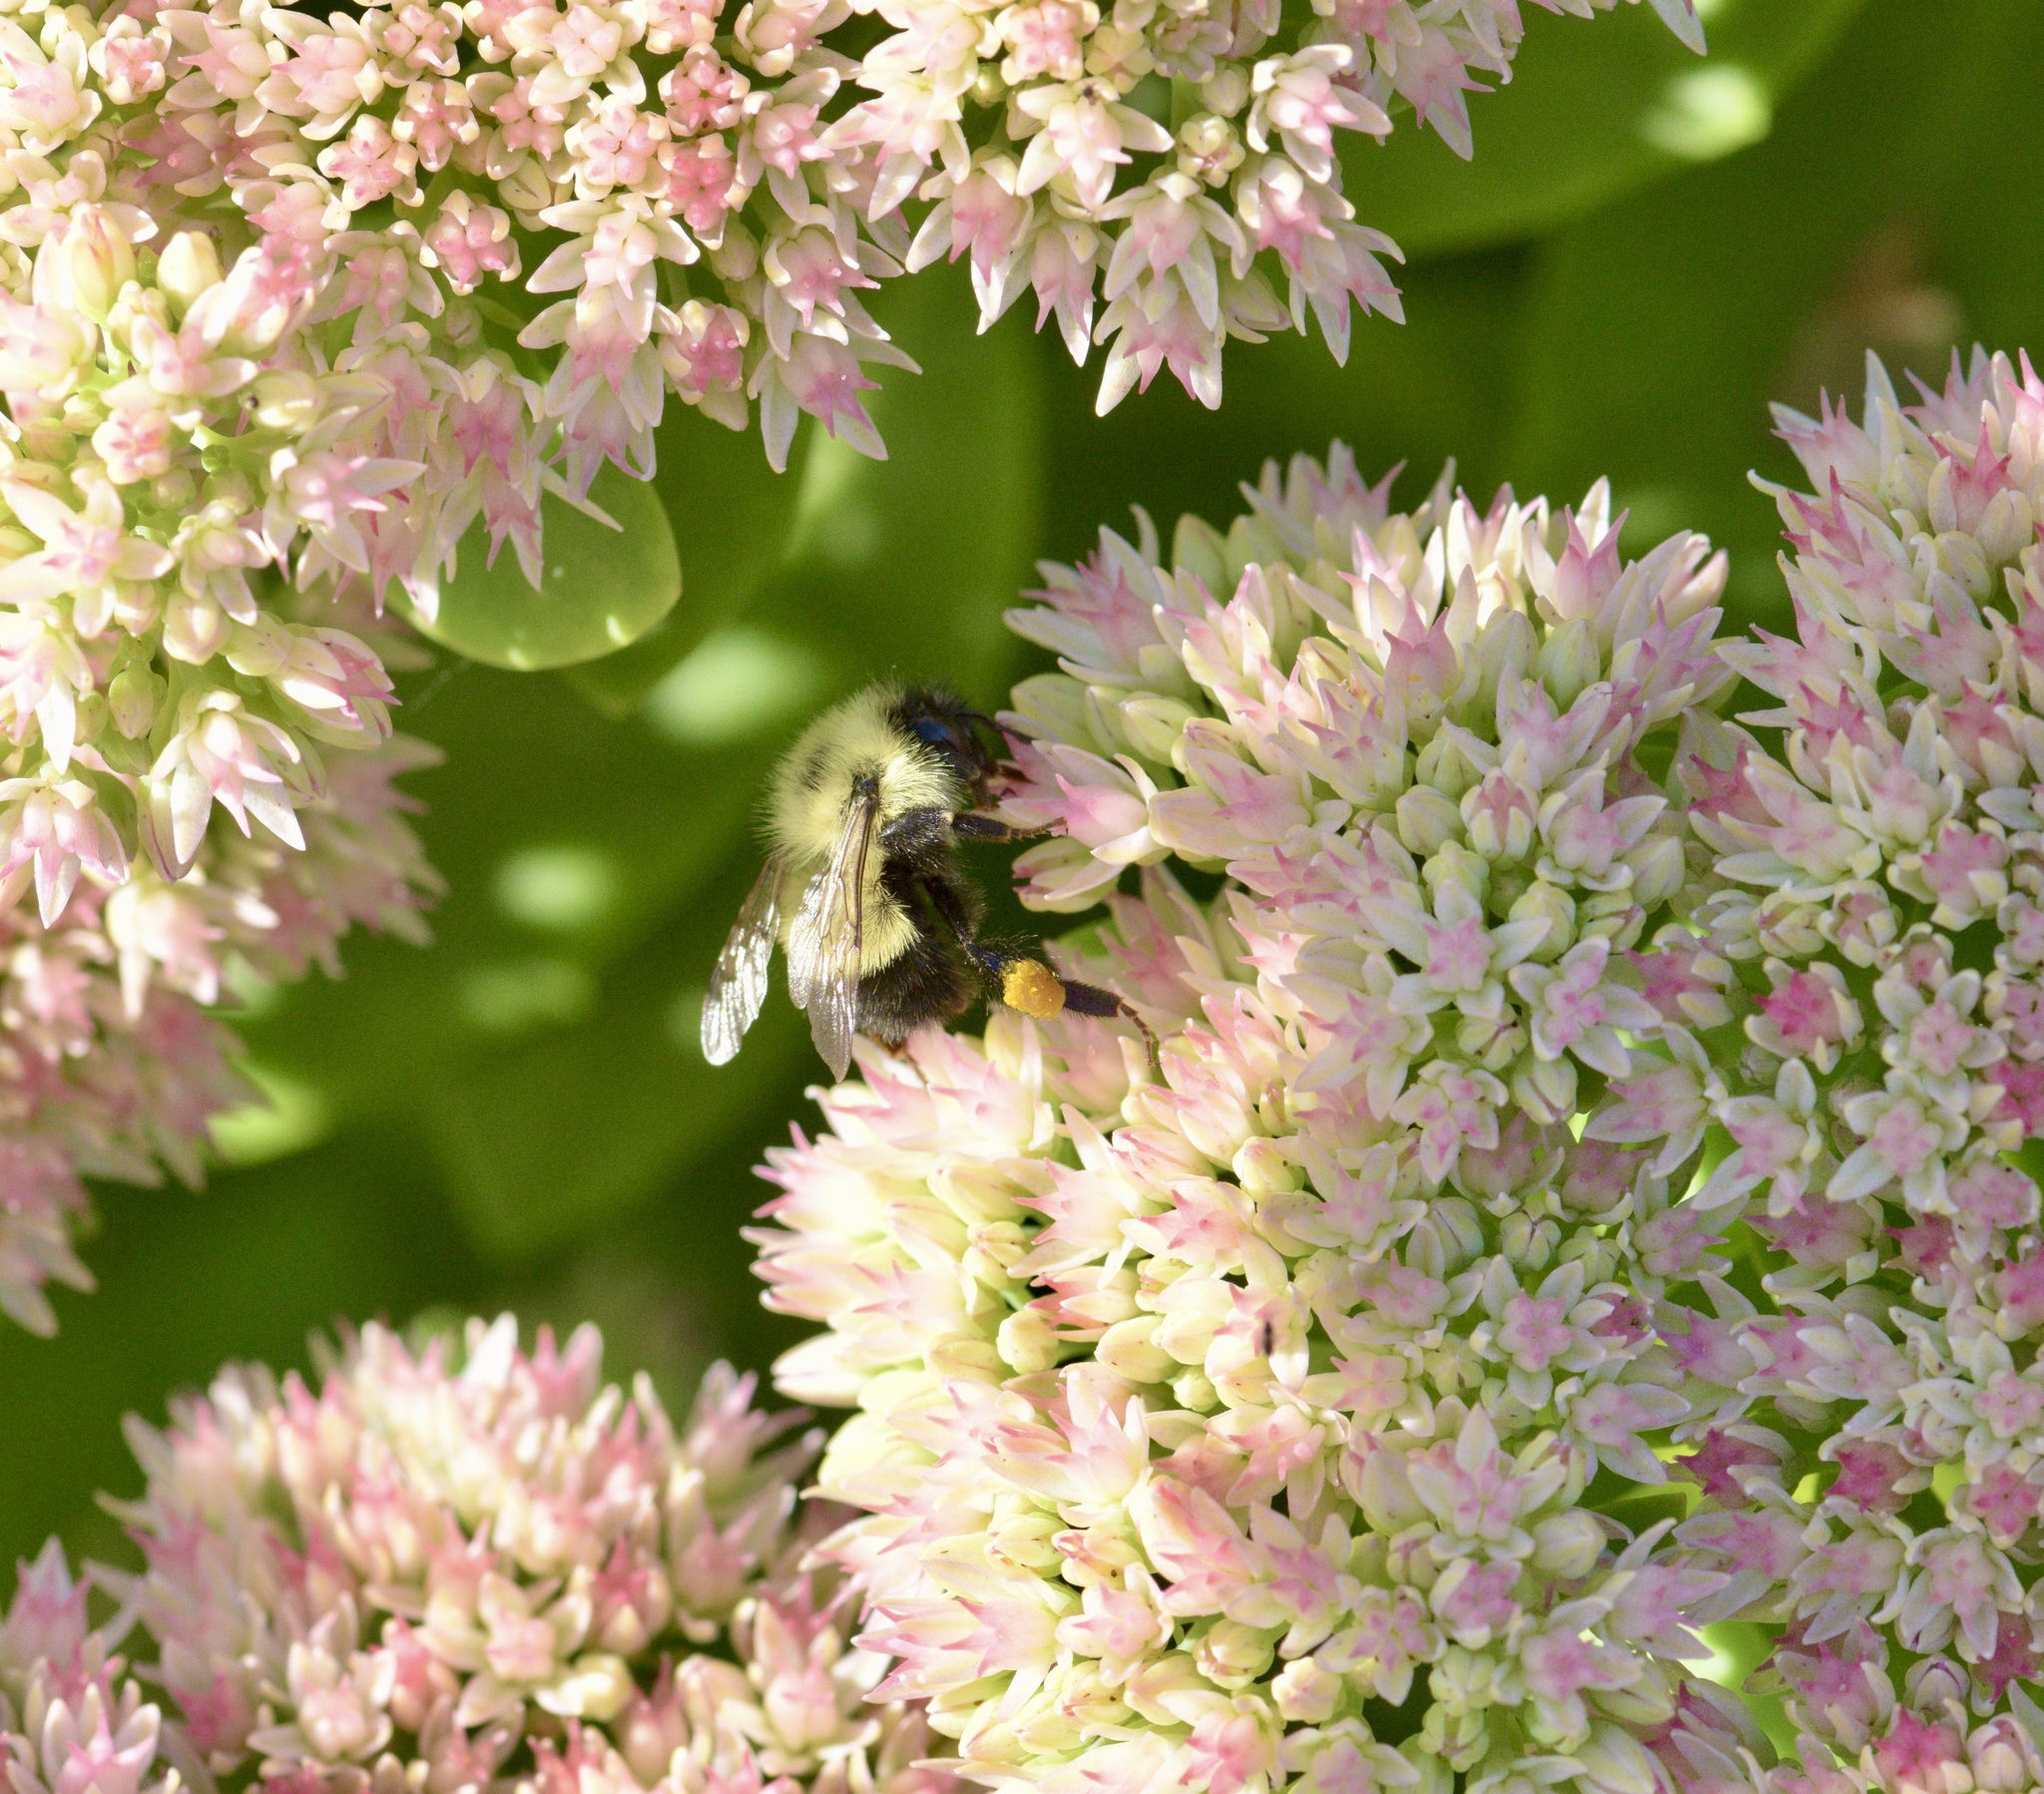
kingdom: Animalia
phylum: Arthropoda
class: Insecta
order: Hymenoptera
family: Apidae
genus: Pyrobombus
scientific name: Pyrobombus
